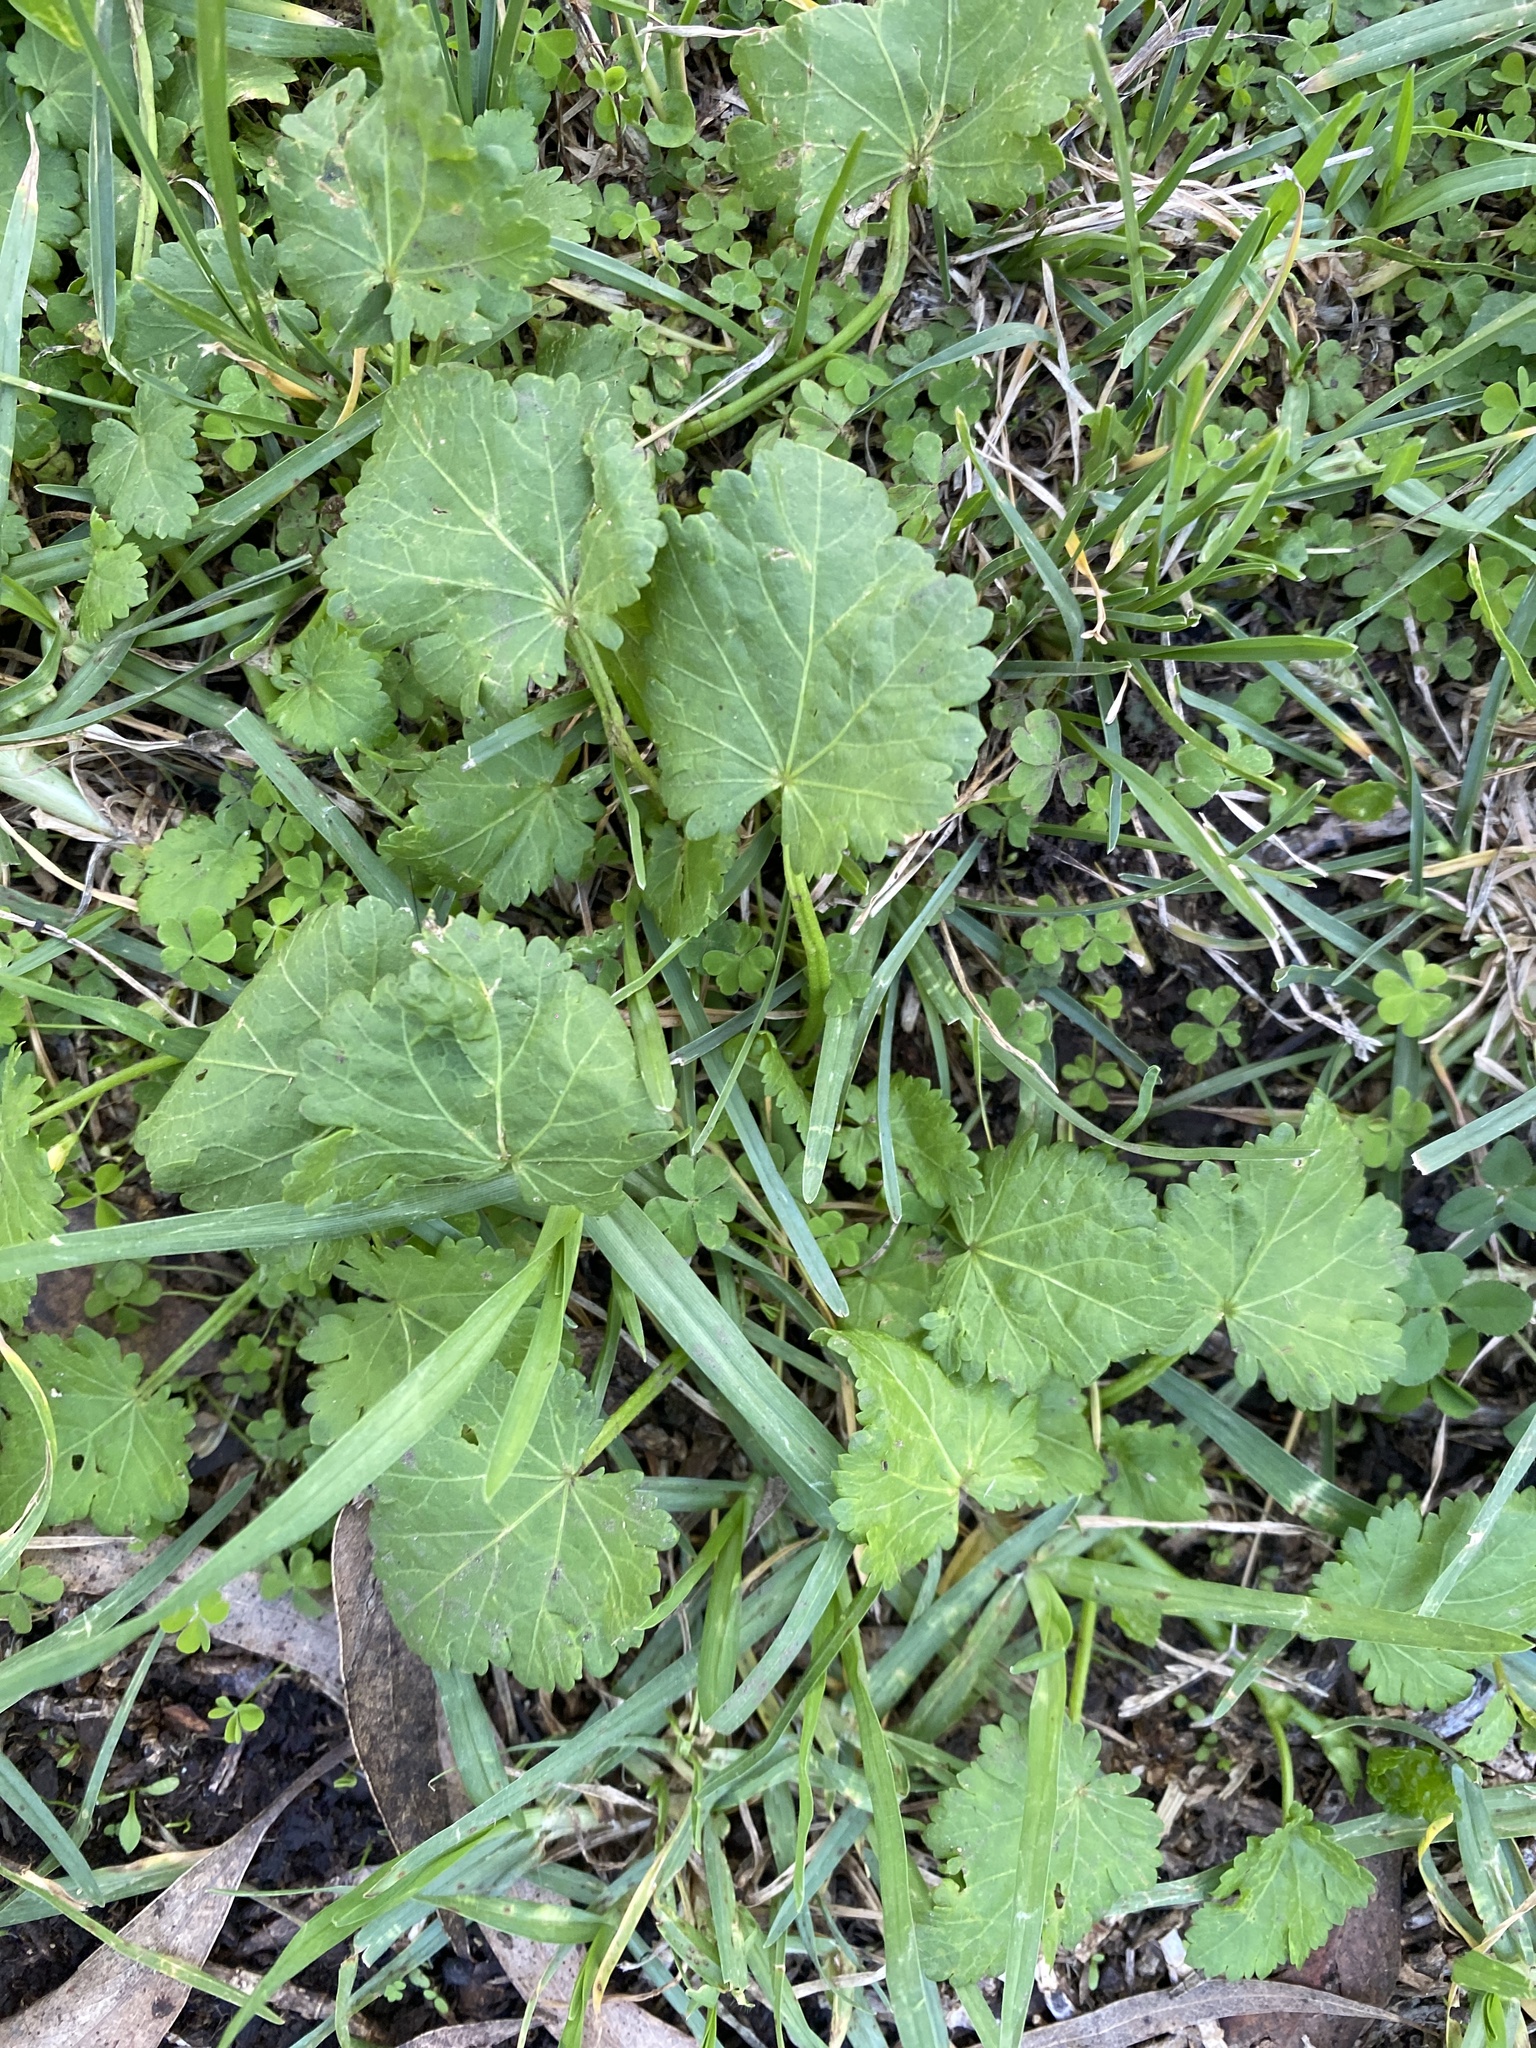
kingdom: Plantae
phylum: Tracheophyta
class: Magnoliopsida
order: Malvales
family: Malvaceae
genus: Modiola
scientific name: Modiola caroliniana
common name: Carolina bristlemallow
